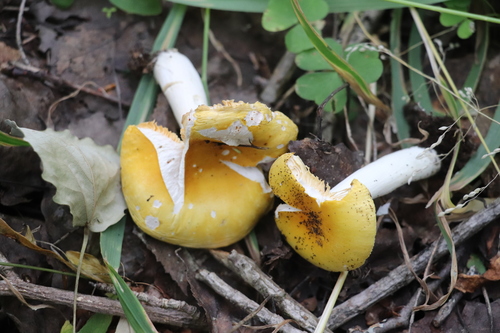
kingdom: Fungi
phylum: Basidiomycota
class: Agaricomycetes
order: Russulales
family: Russulaceae
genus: Russula
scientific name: Russula risigallina
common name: Golden brittlegill
